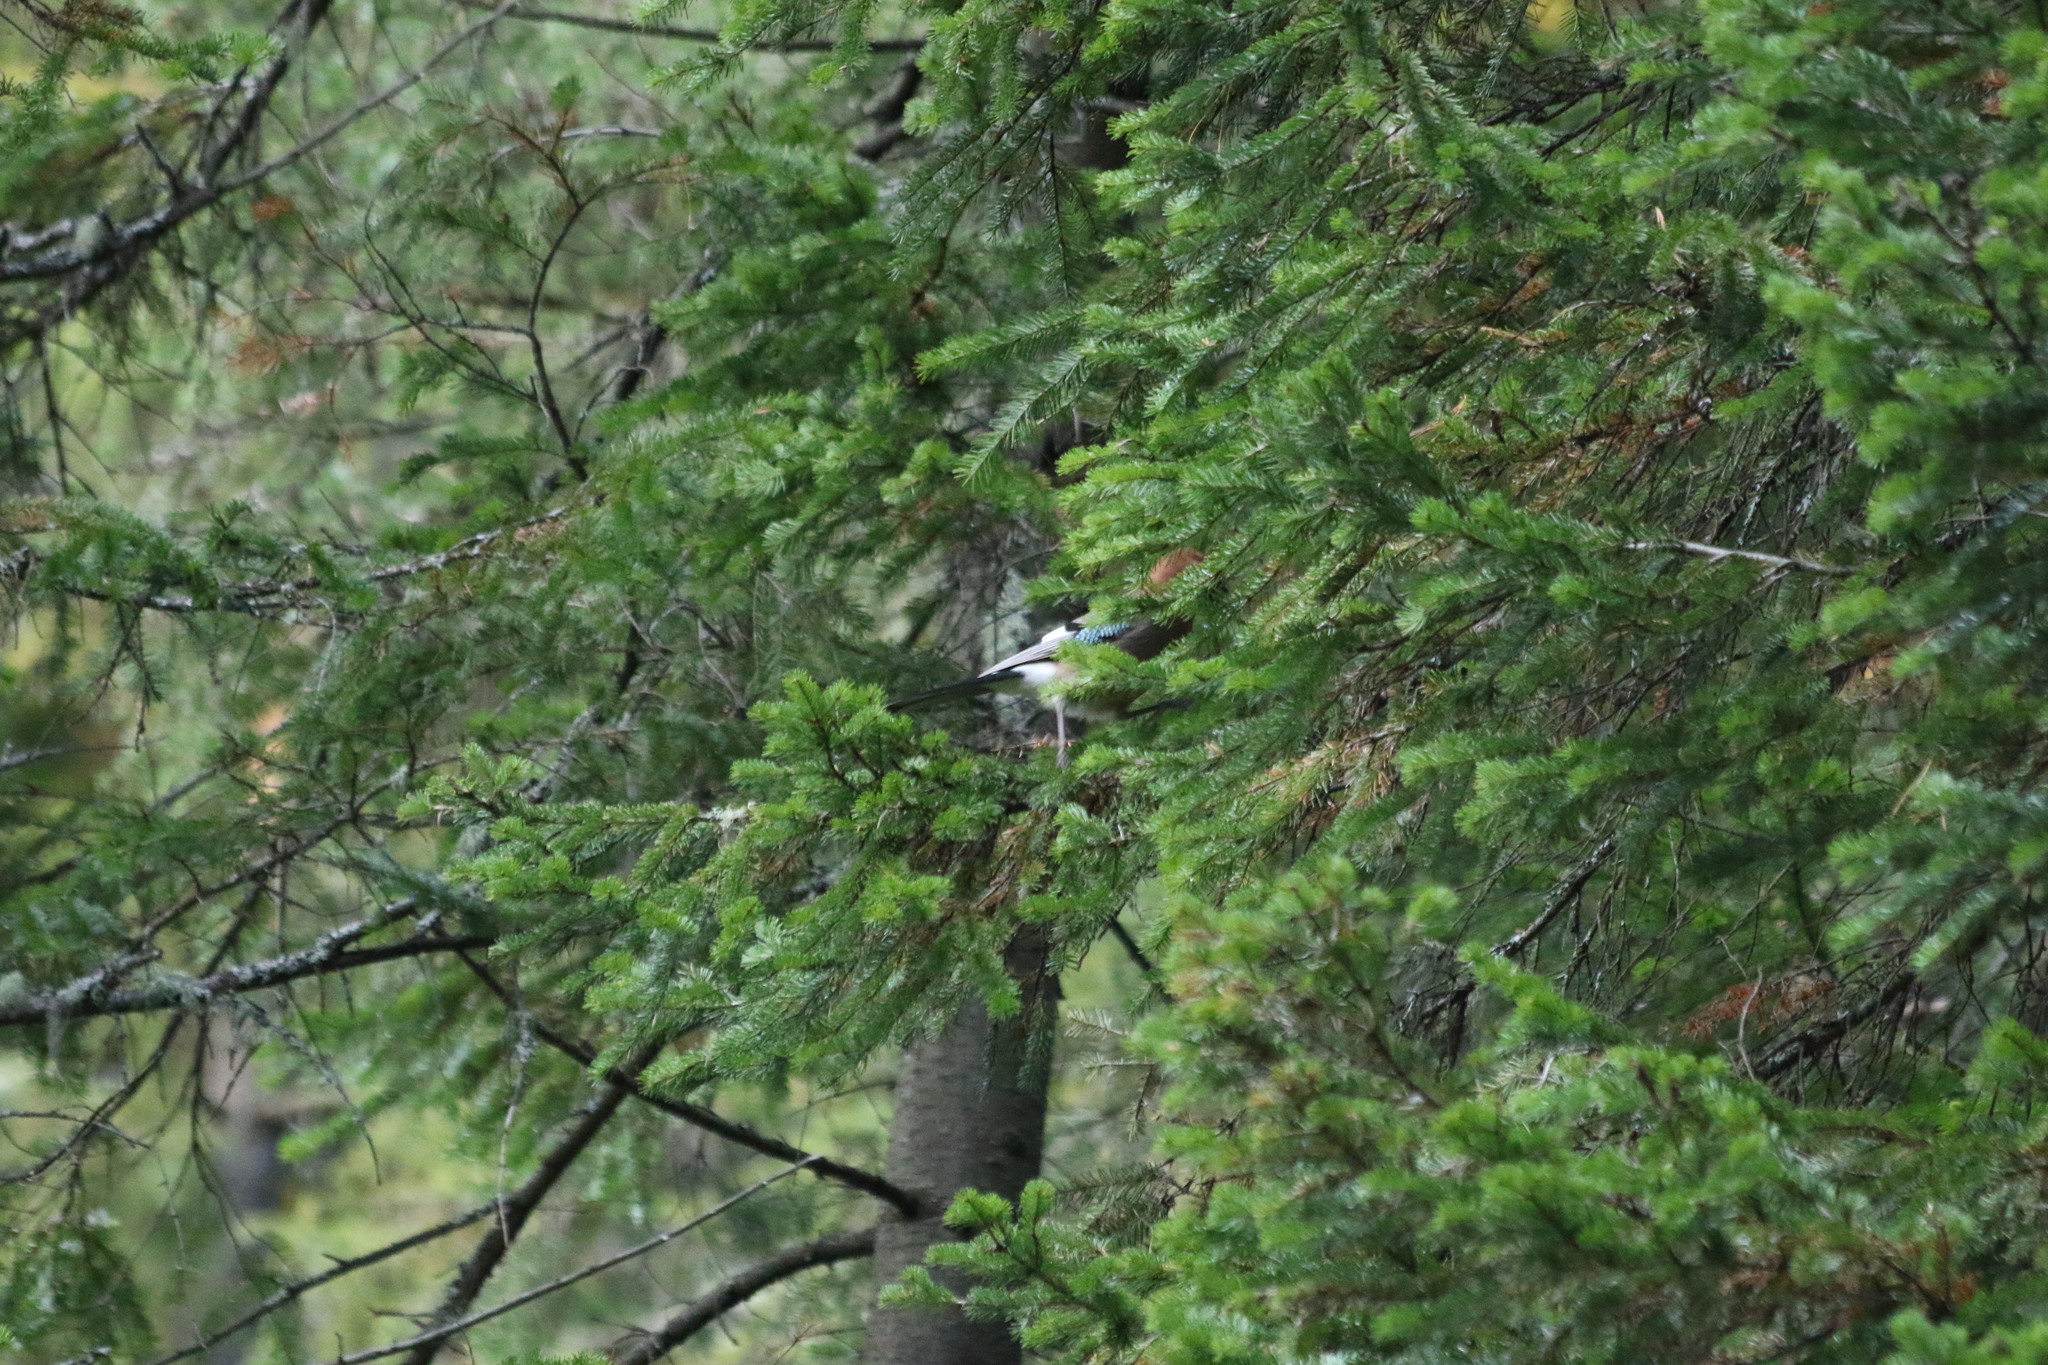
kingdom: Animalia
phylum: Chordata
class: Aves
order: Passeriformes
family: Corvidae
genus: Garrulus
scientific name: Garrulus glandarius
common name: Eurasian jay
